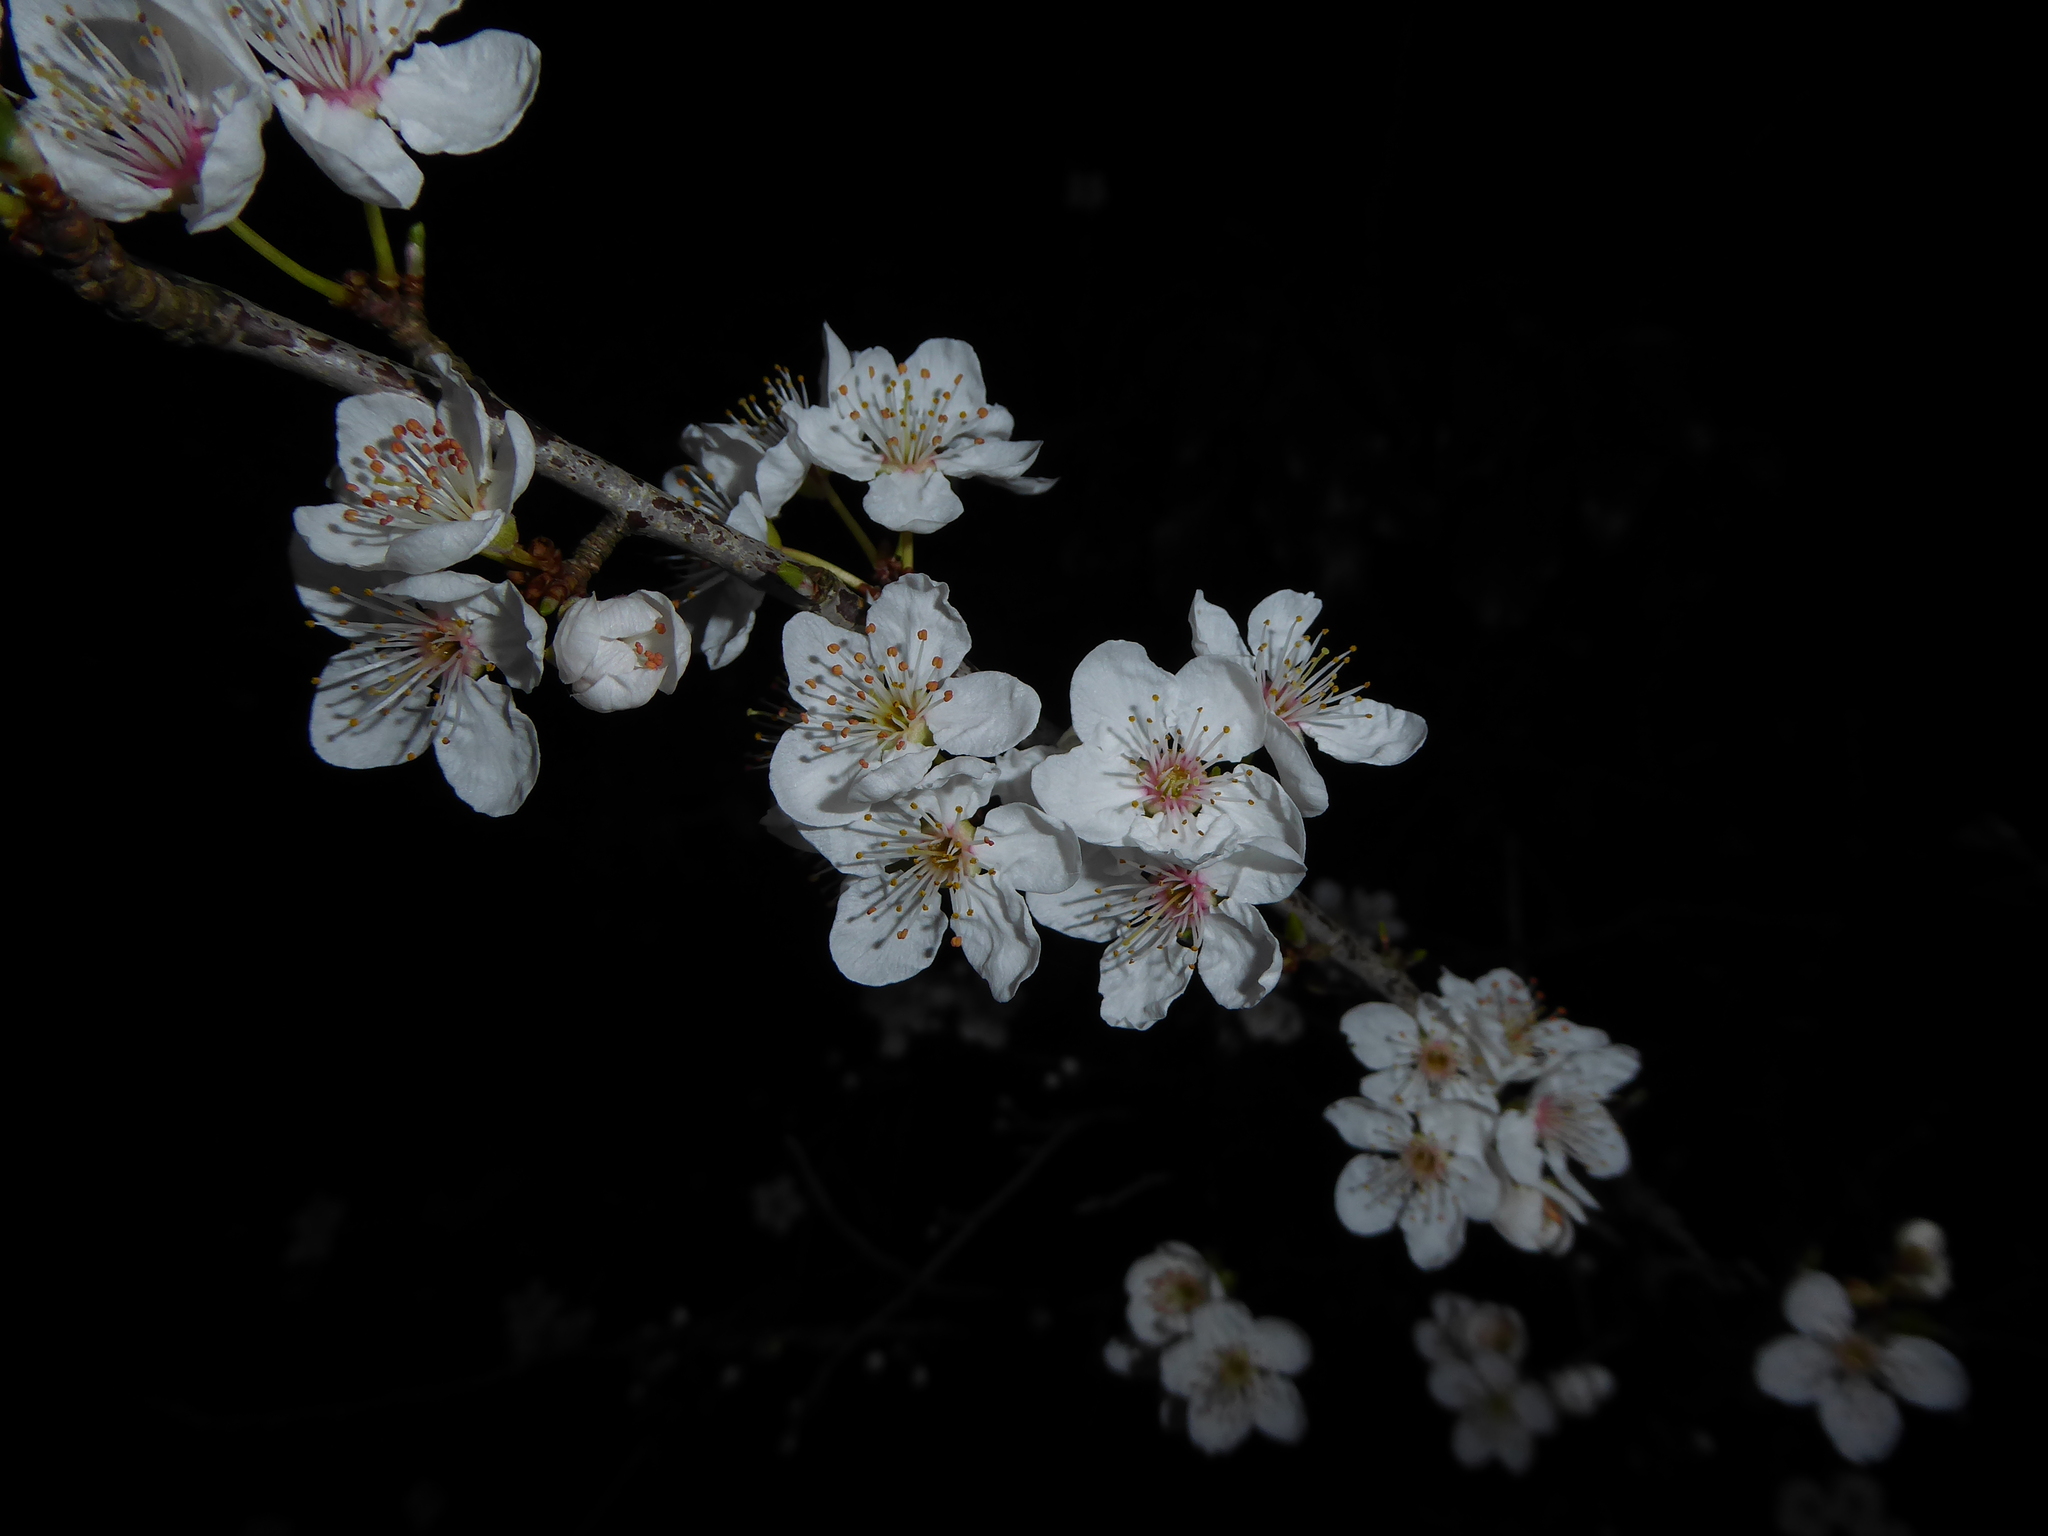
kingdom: Plantae
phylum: Tracheophyta
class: Magnoliopsida
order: Rosales
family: Rosaceae
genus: Prunus
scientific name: Prunus cerasifera
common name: Cherry plum
